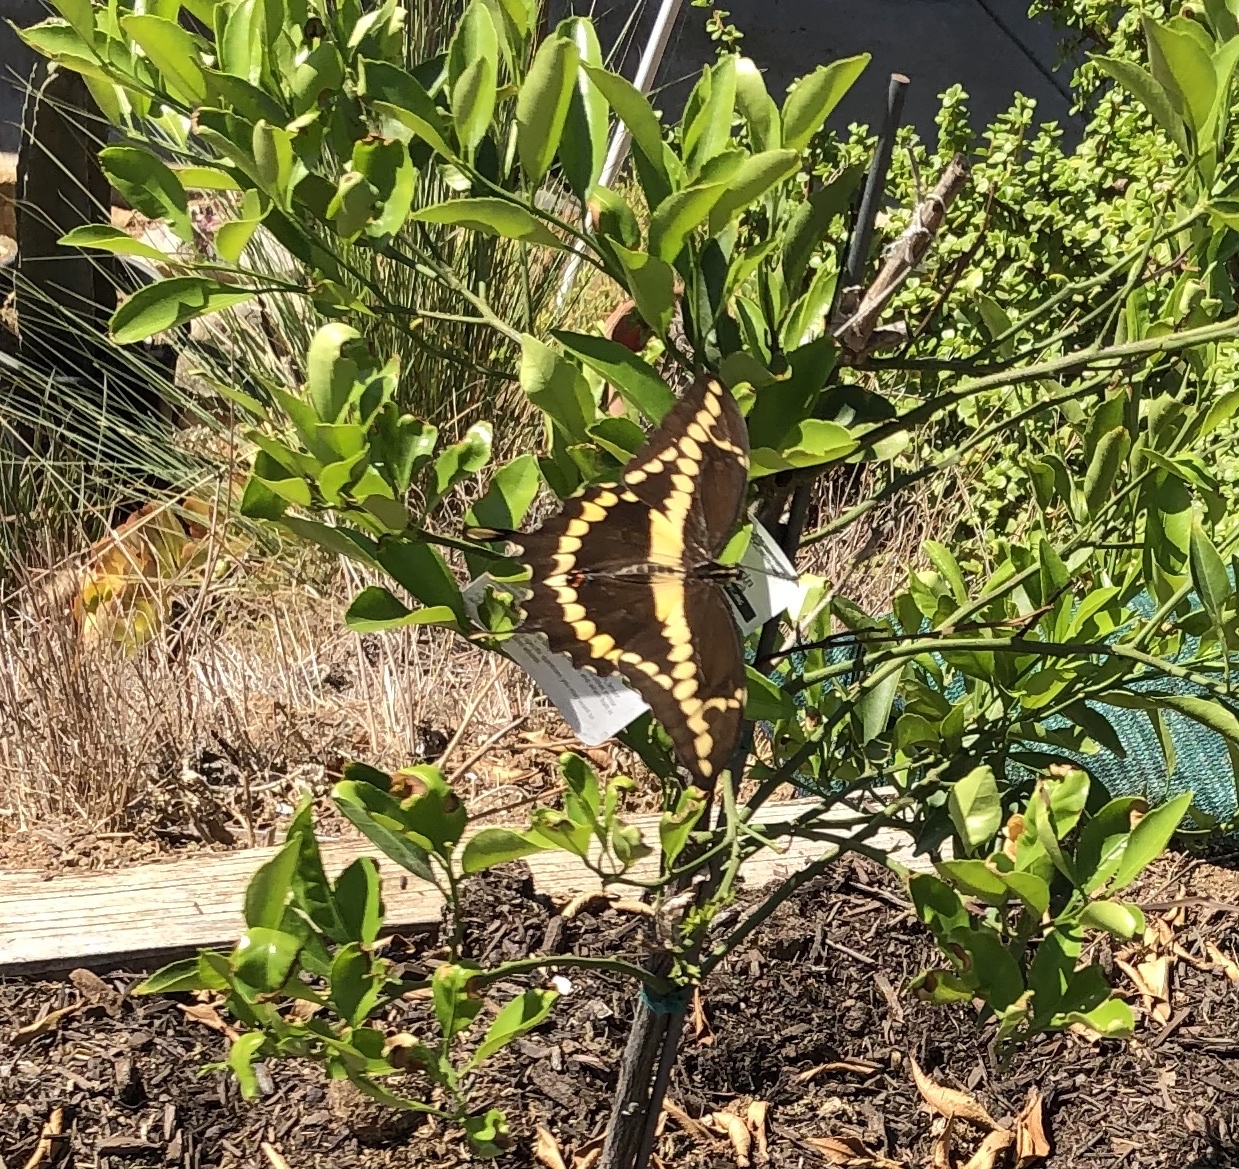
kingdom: Animalia
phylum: Arthropoda
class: Insecta
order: Lepidoptera
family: Papilionidae
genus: Papilio
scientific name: Papilio rumiko
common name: Western giant swallowtail
